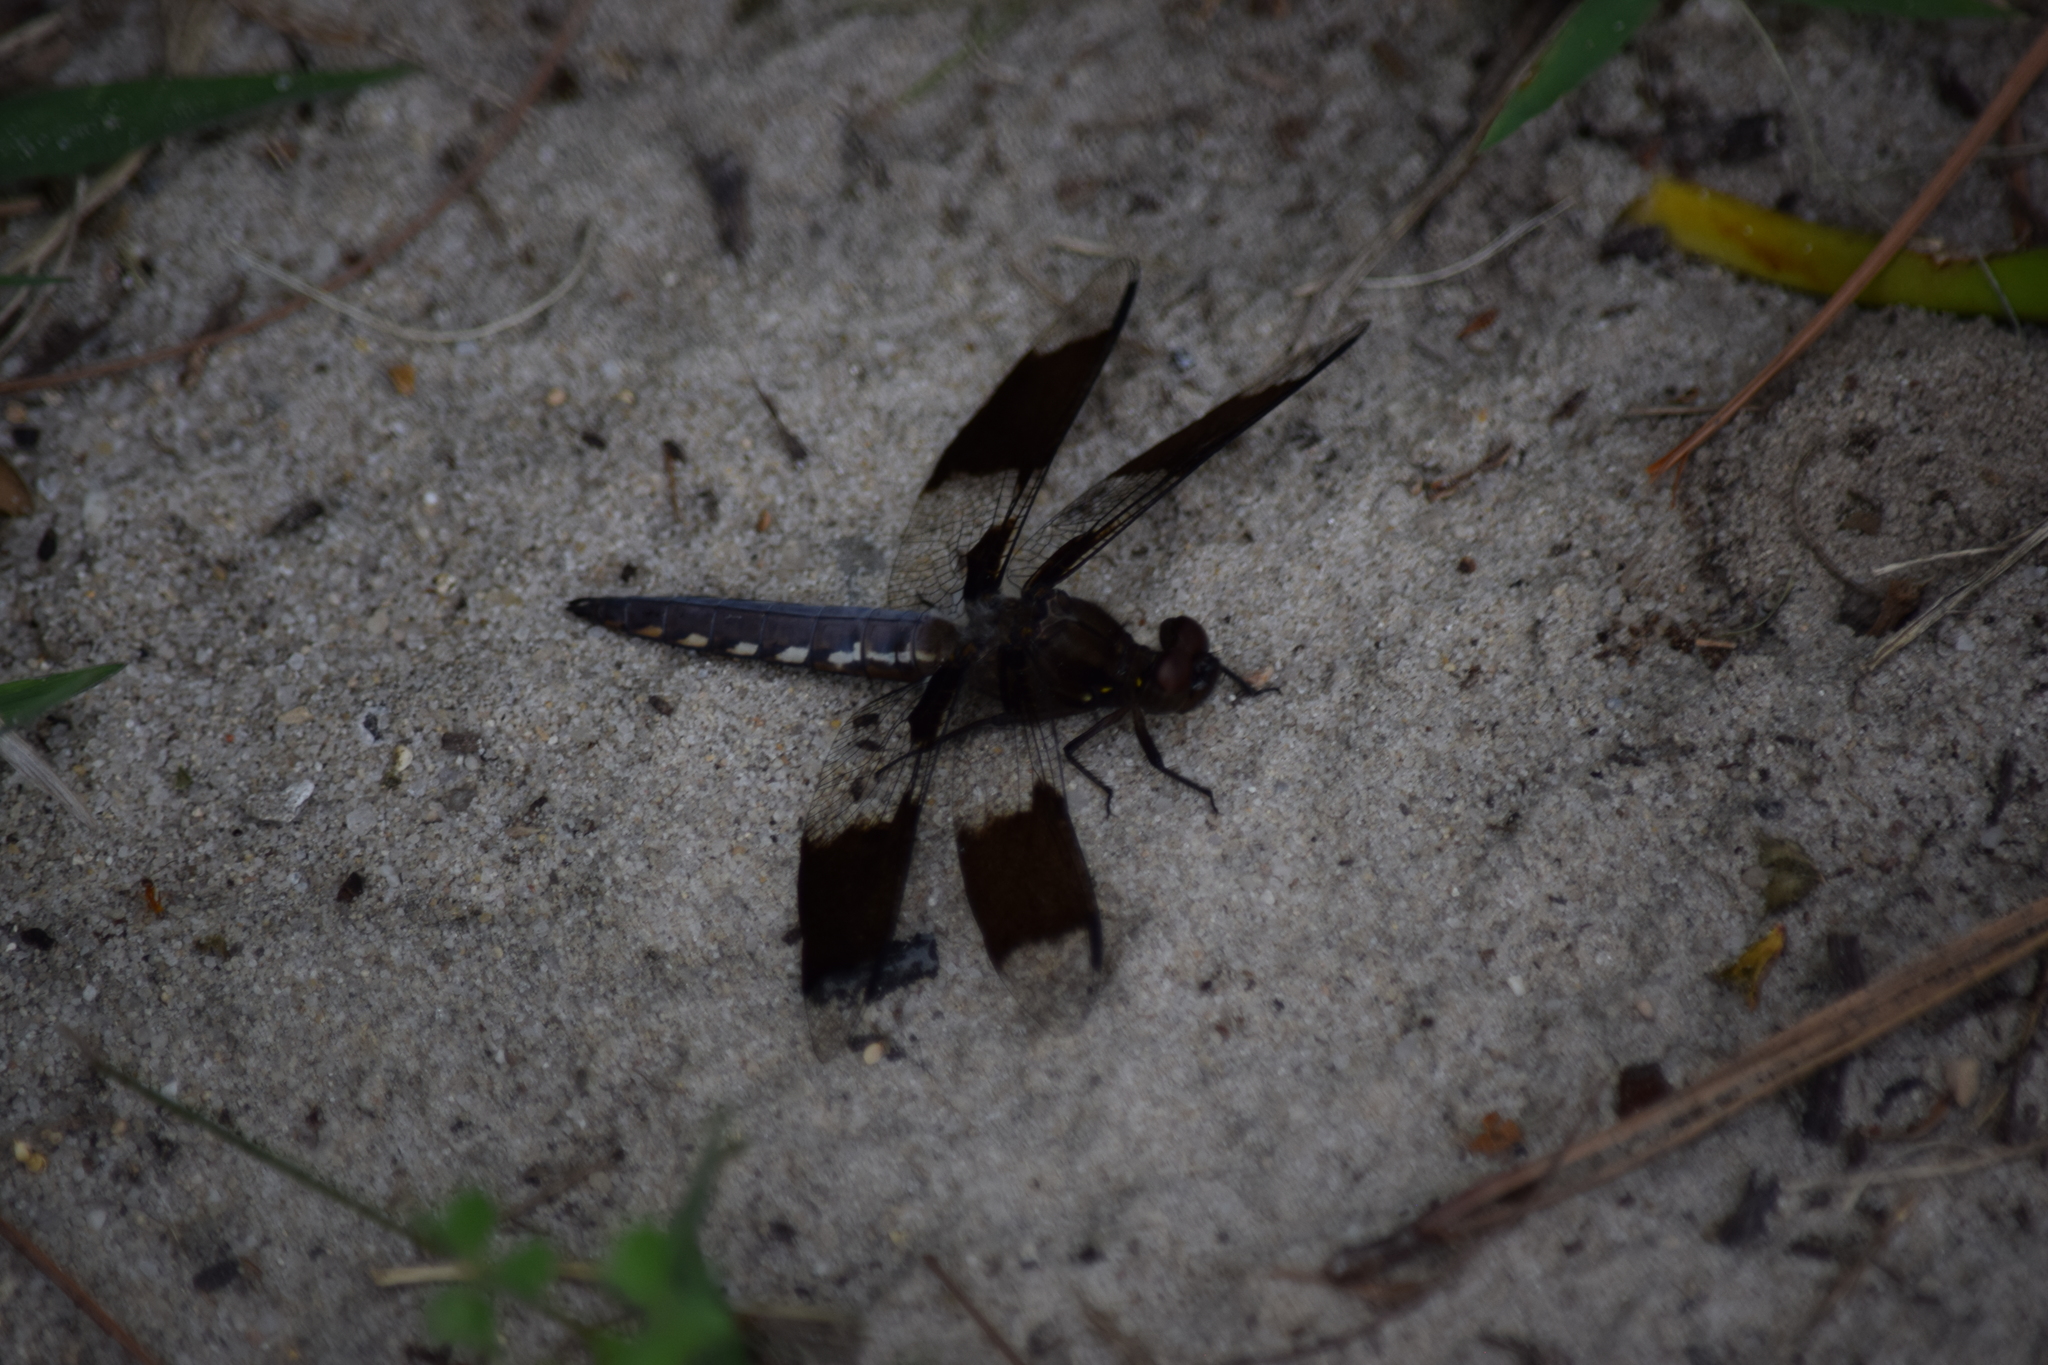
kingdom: Animalia
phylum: Arthropoda
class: Insecta
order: Odonata
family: Libellulidae
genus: Plathemis
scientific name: Plathemis lydia
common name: Common whitetail
